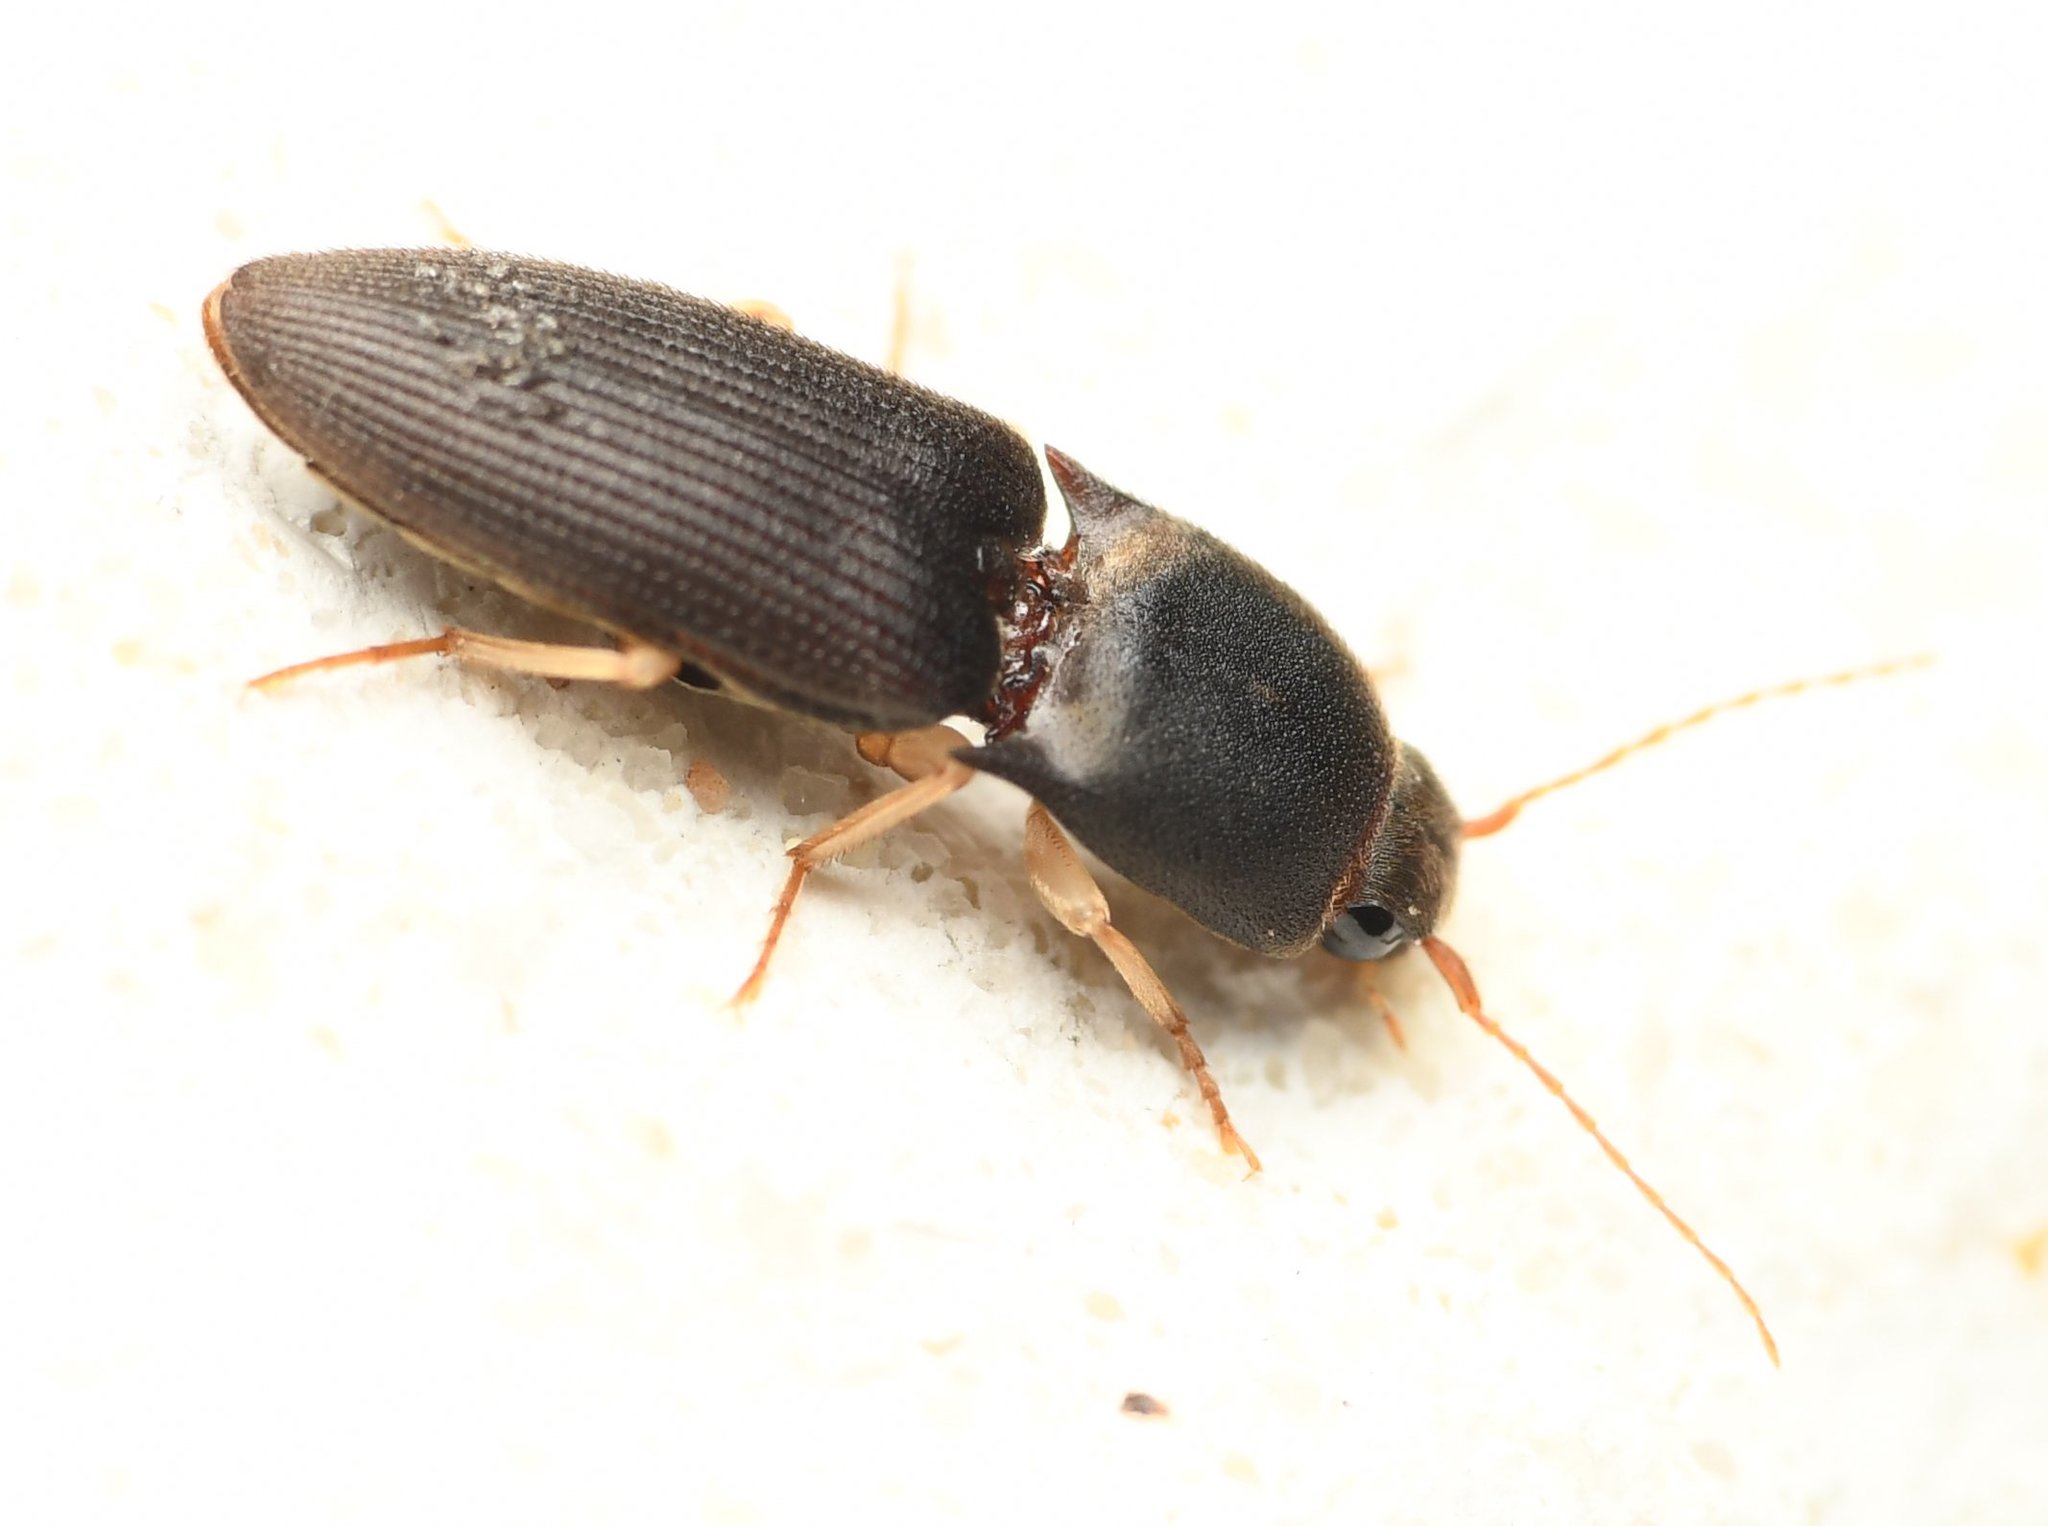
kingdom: Animalia
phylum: Arthropoda
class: Insecta
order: Coleoptera
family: Elateridae
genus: Heteroderes
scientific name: Heteroderes amplicollis
